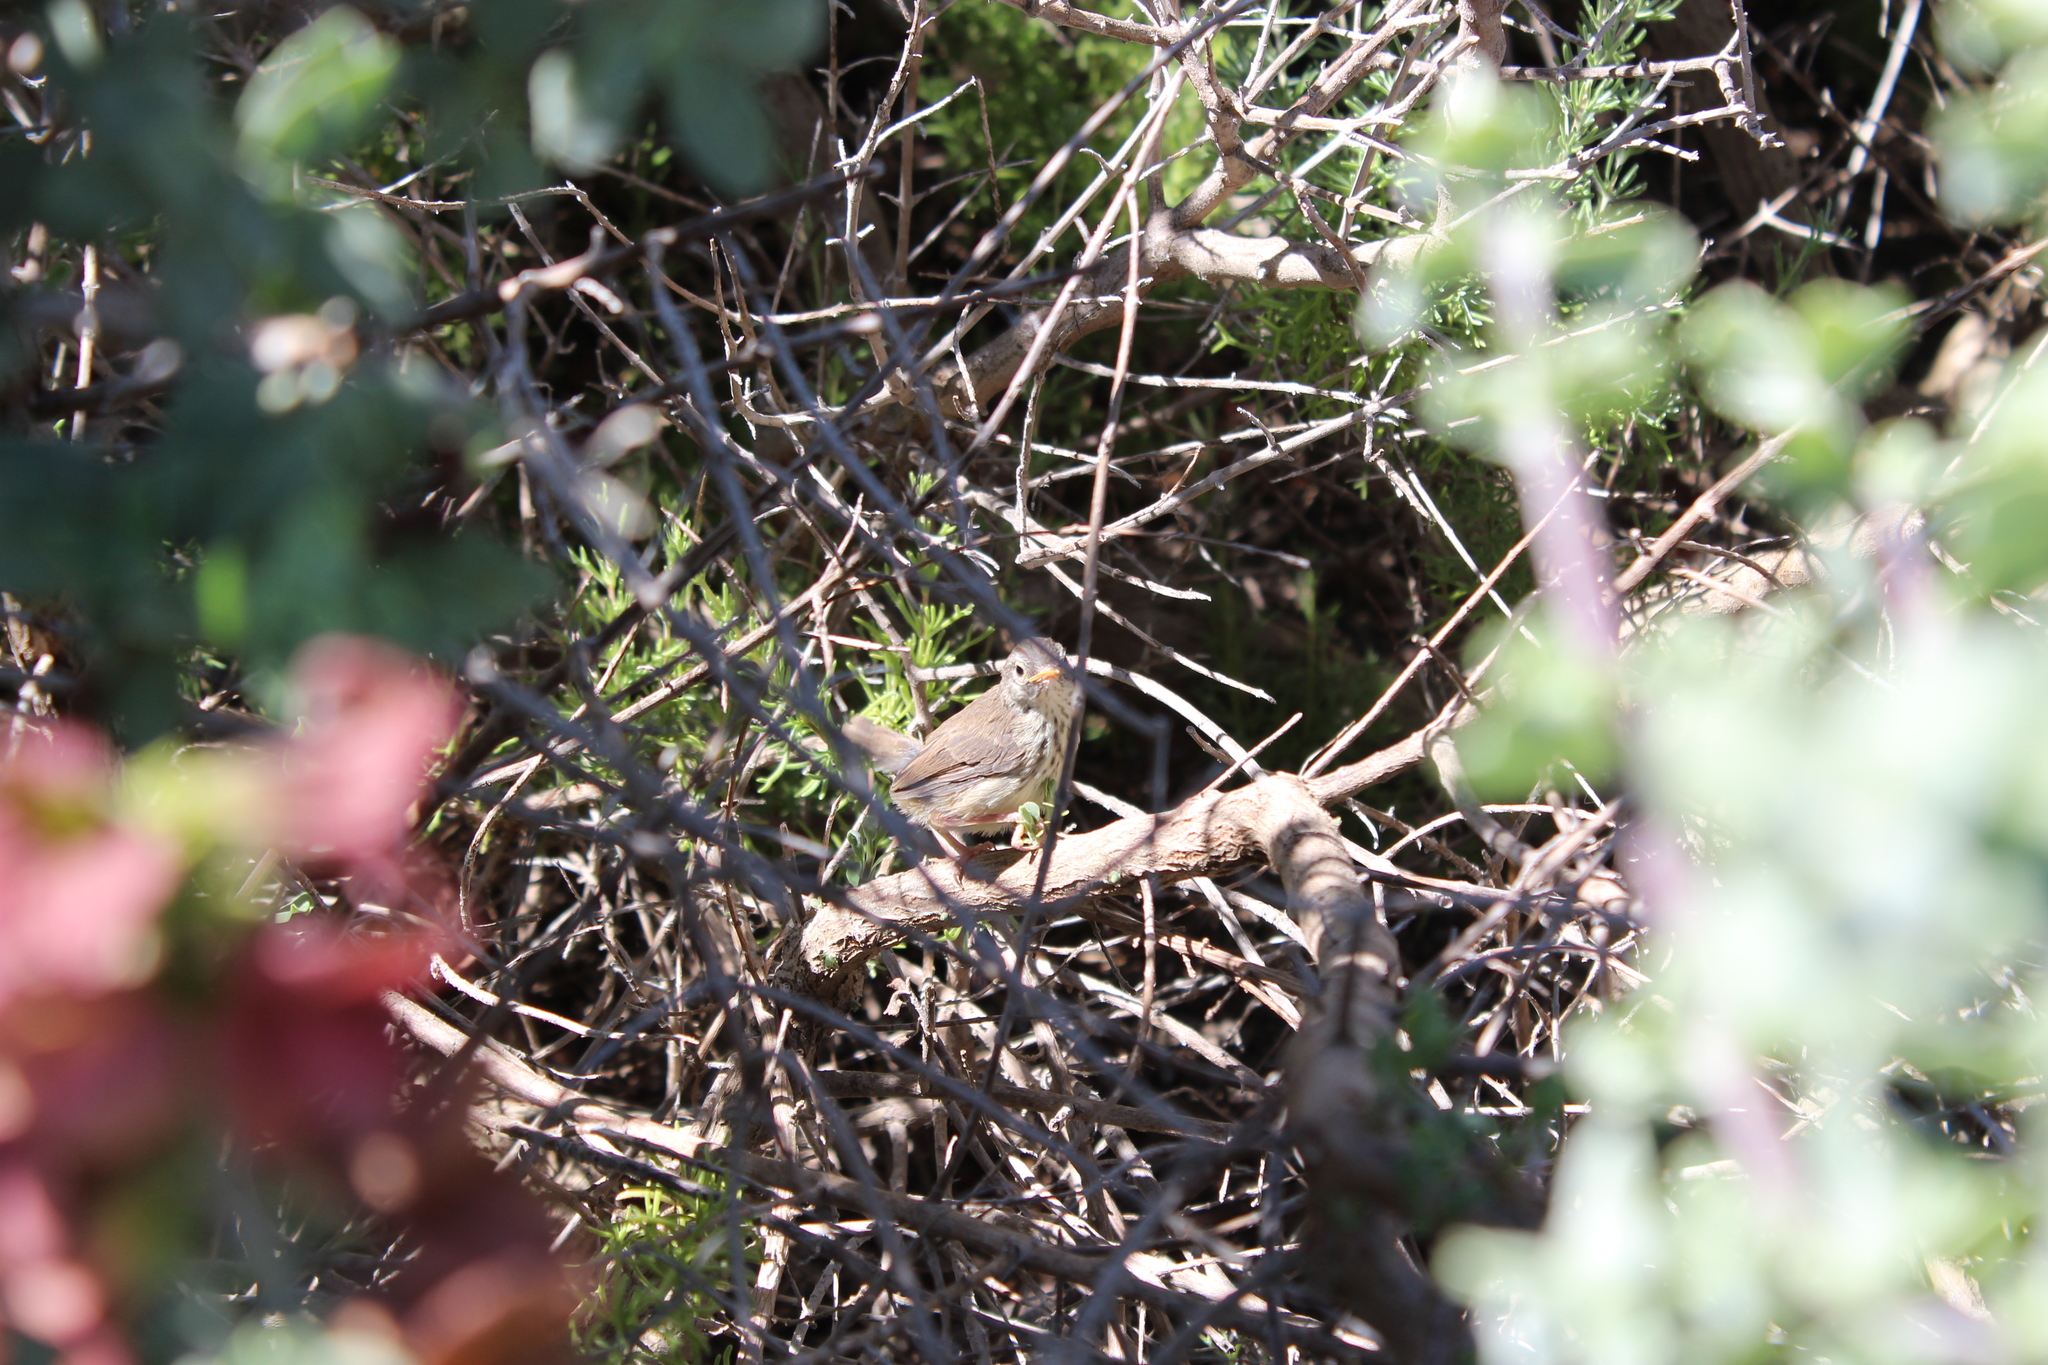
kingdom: Animalia
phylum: Chordata
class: Aves
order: Passeriformes
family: Cisticolidae
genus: Prinia
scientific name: Prinia maculosa
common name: Karoo prinia
